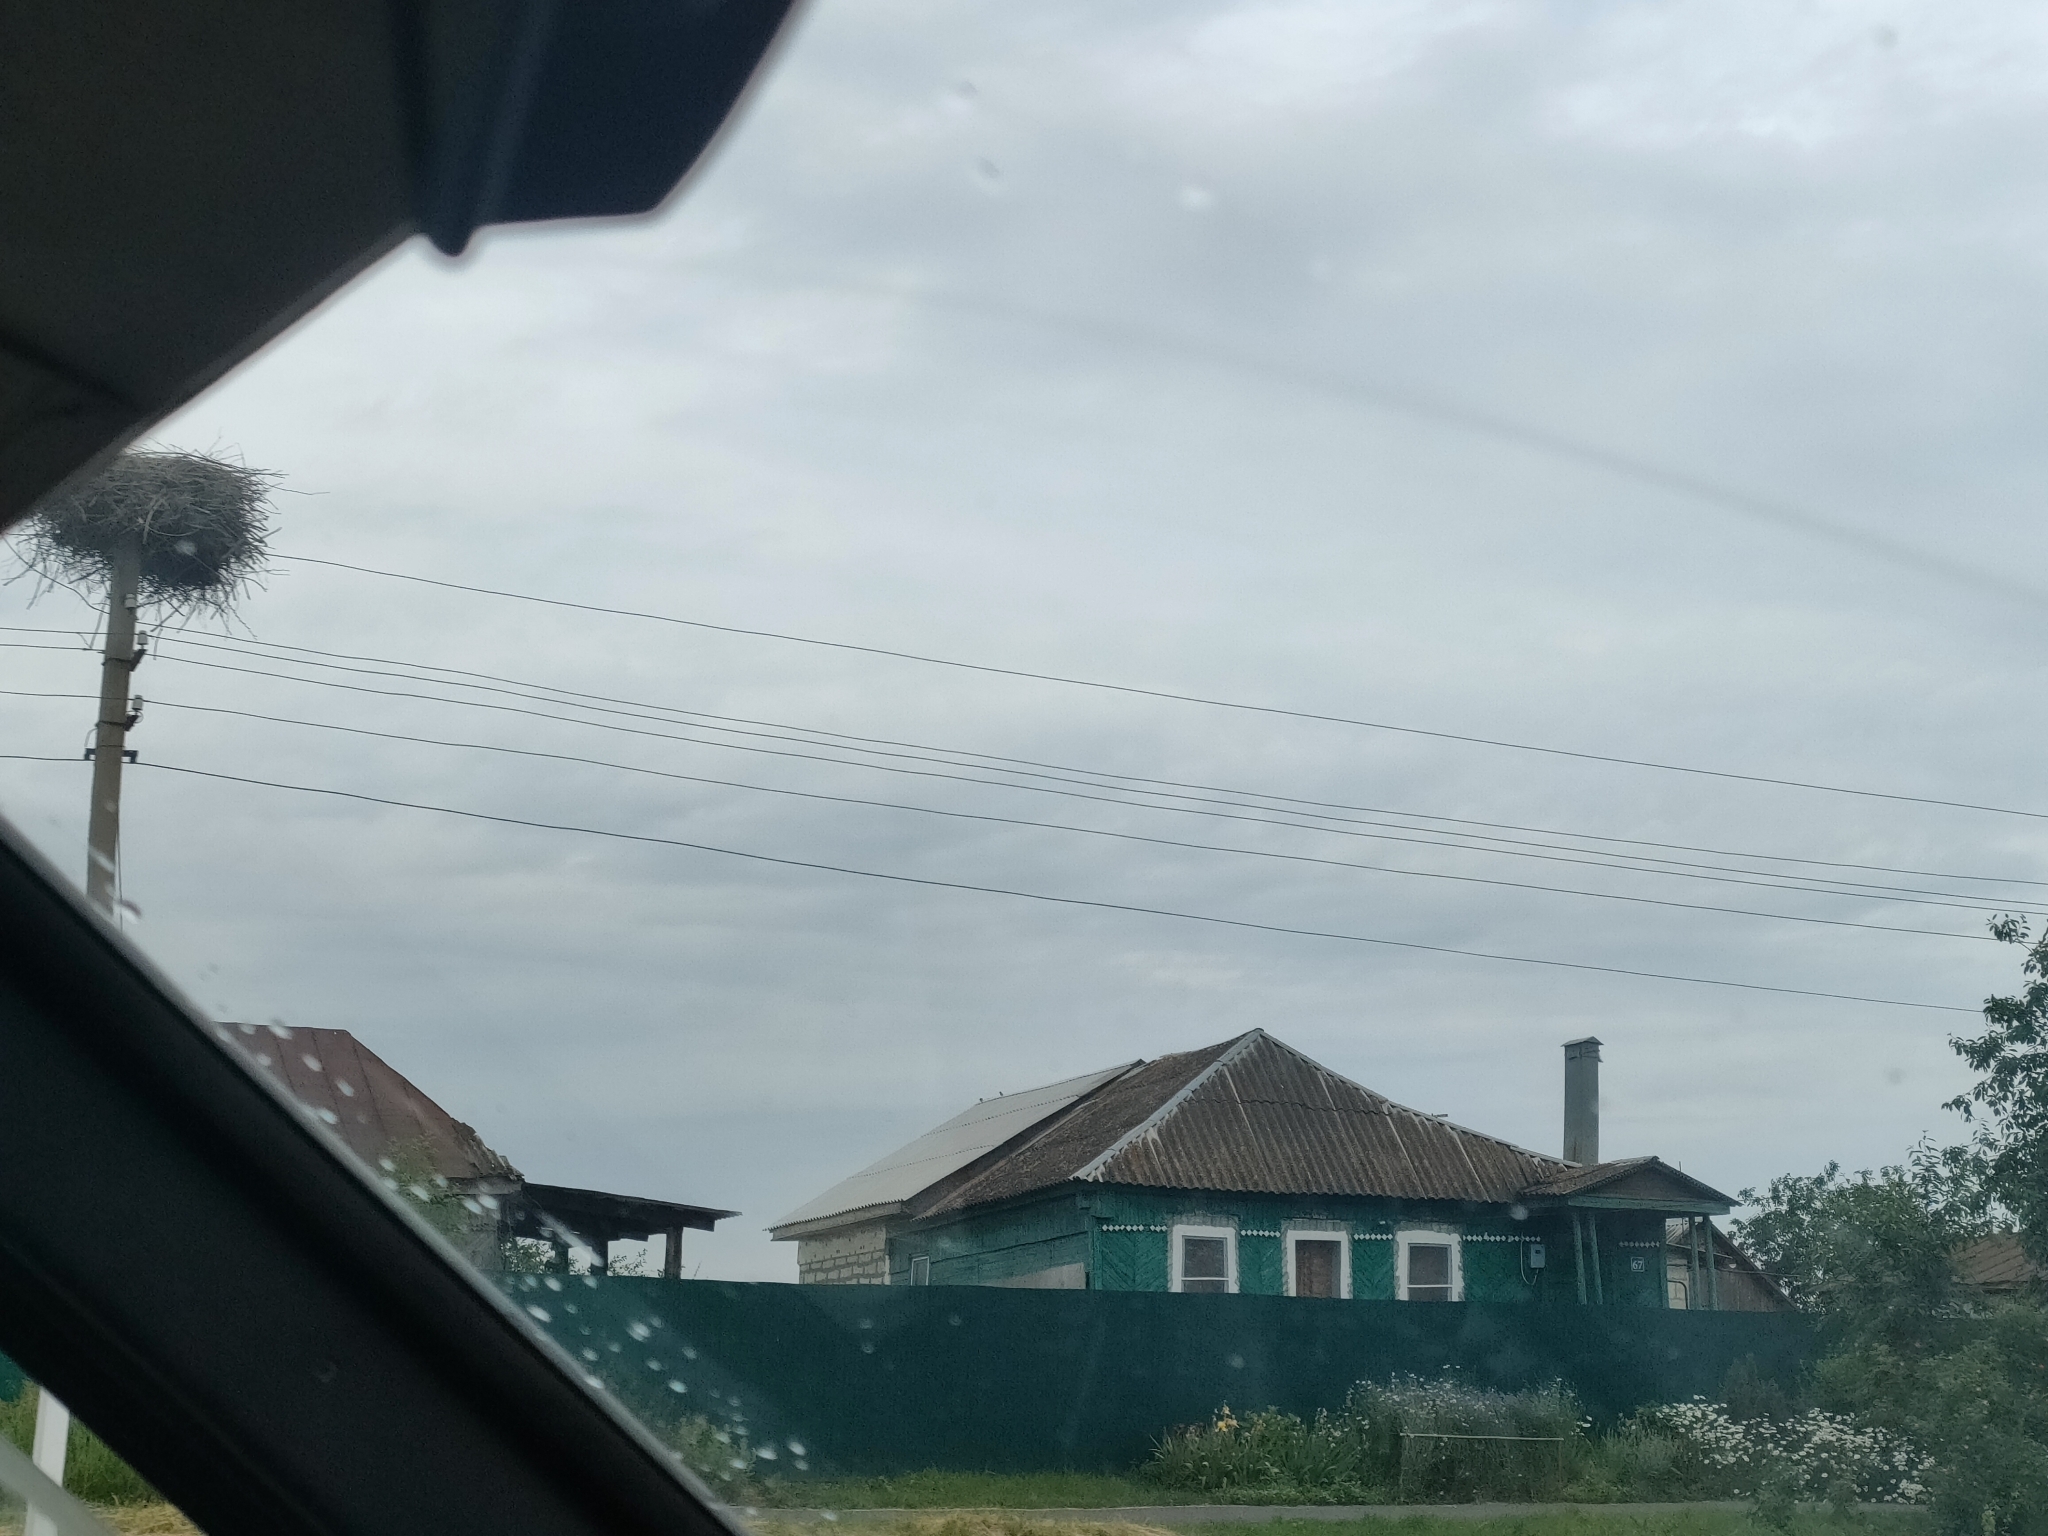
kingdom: Animalia
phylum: Chordata
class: Aves
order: Ciconiiformes
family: Ciconiidae
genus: Ciconia
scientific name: Ciconia ciconia
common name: White stork
